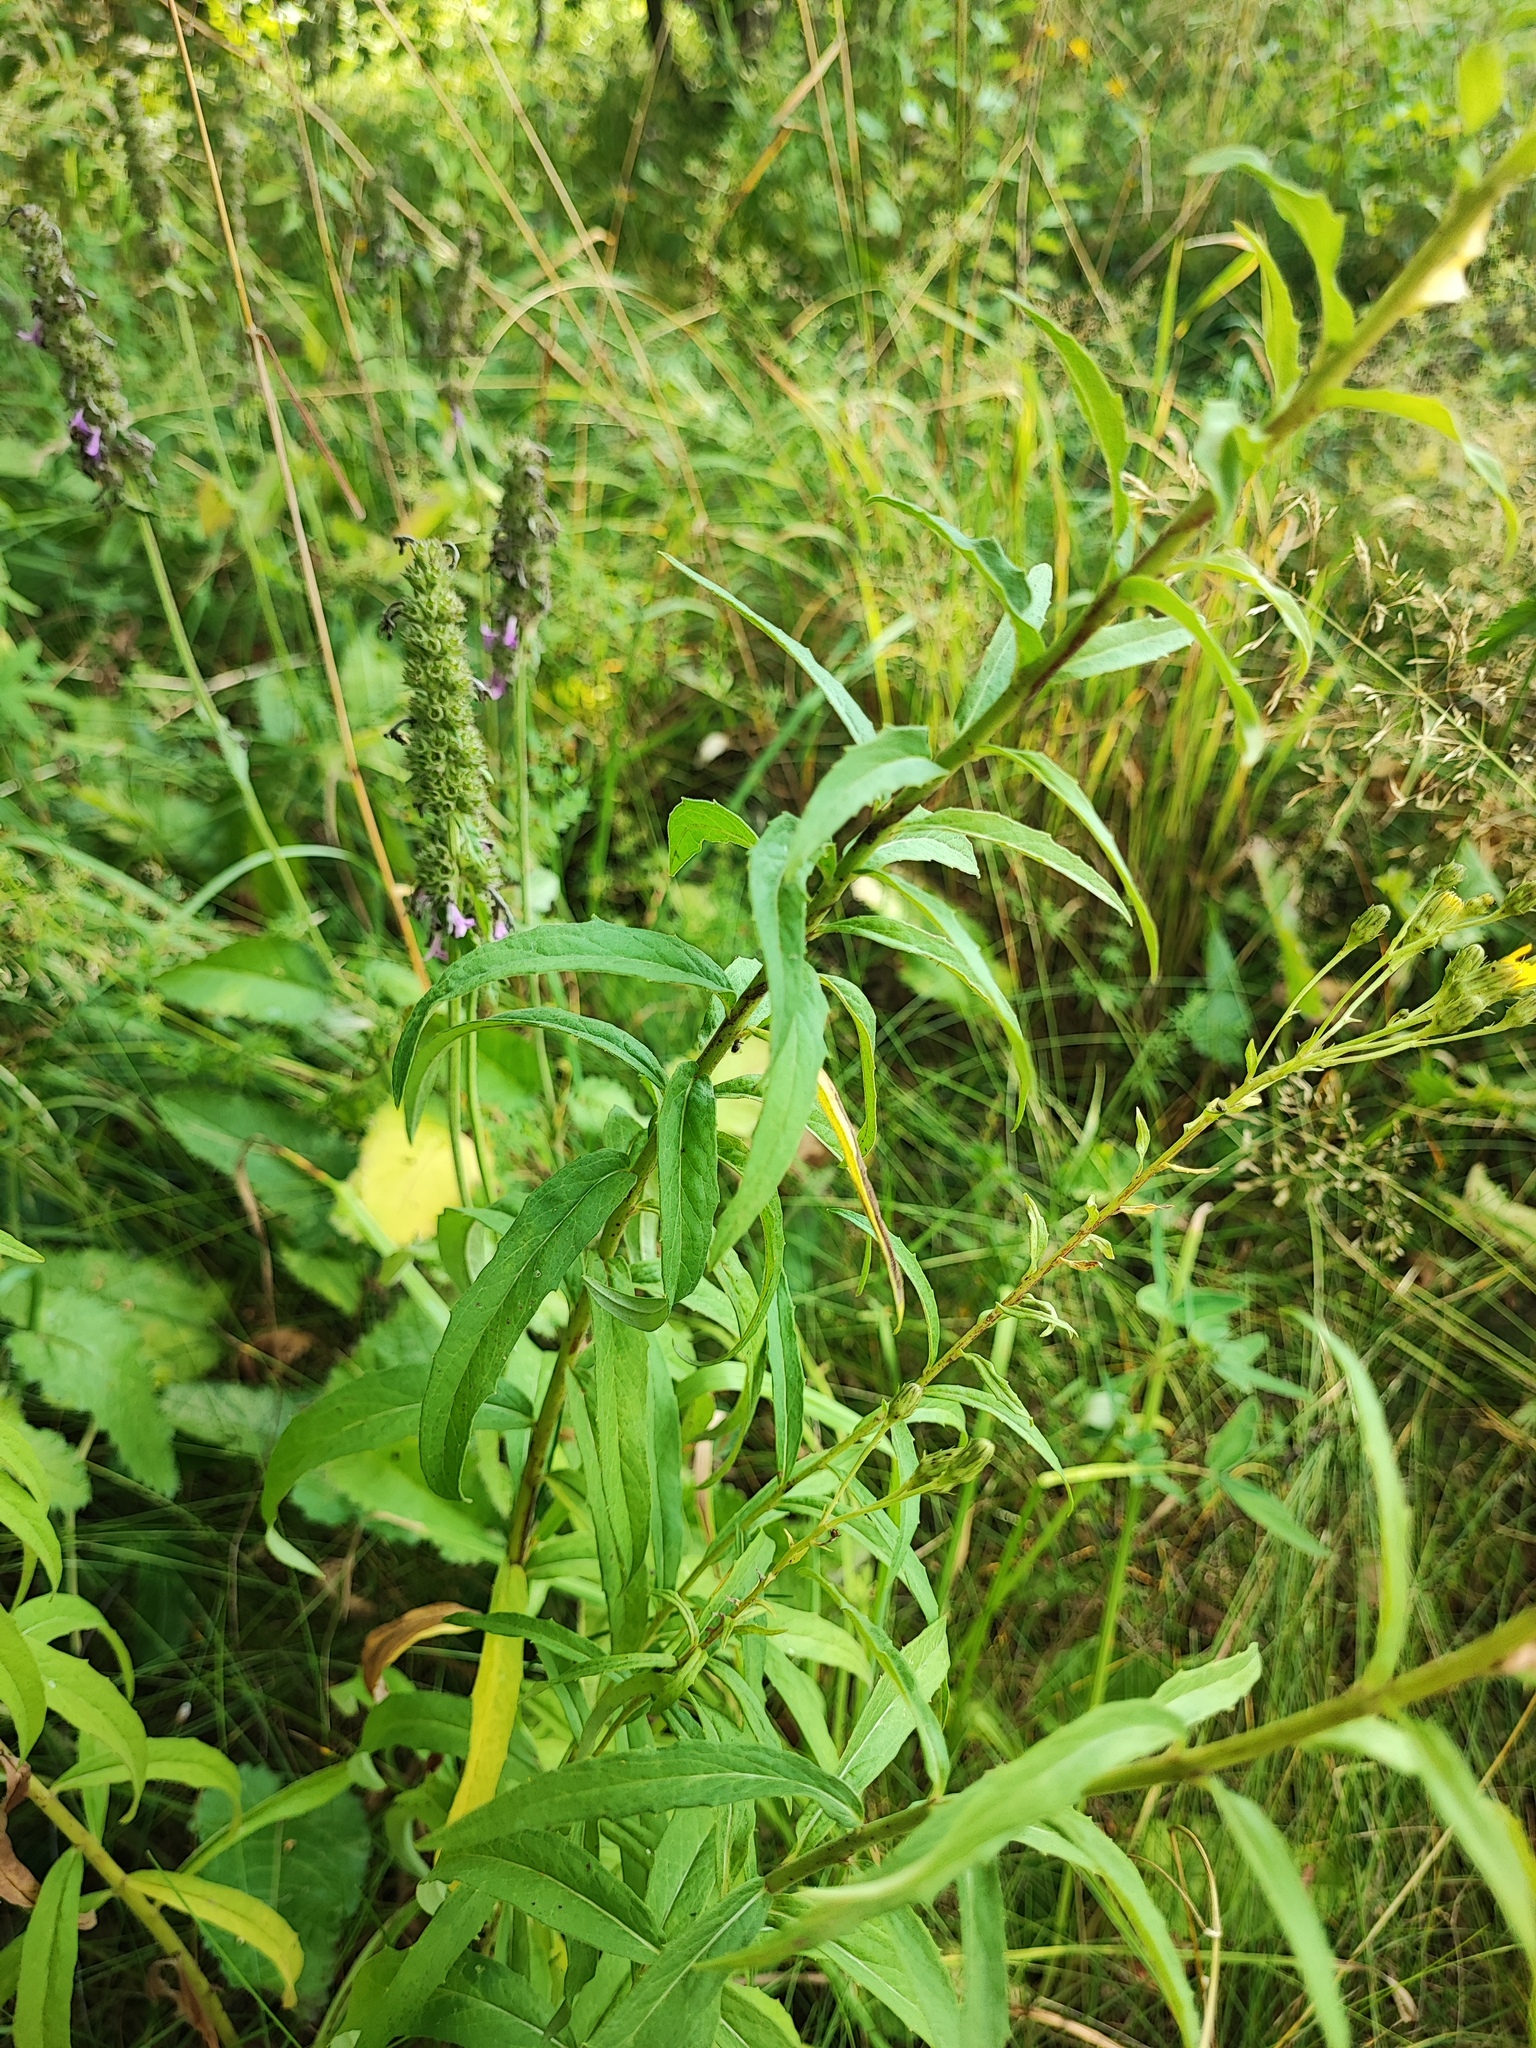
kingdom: Plantae
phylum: Tracheophyta
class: Magnoliopsida
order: Asterales
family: Asteraceae
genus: Hieracium
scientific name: Hieracium umbellatum
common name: Northern hawkweed
